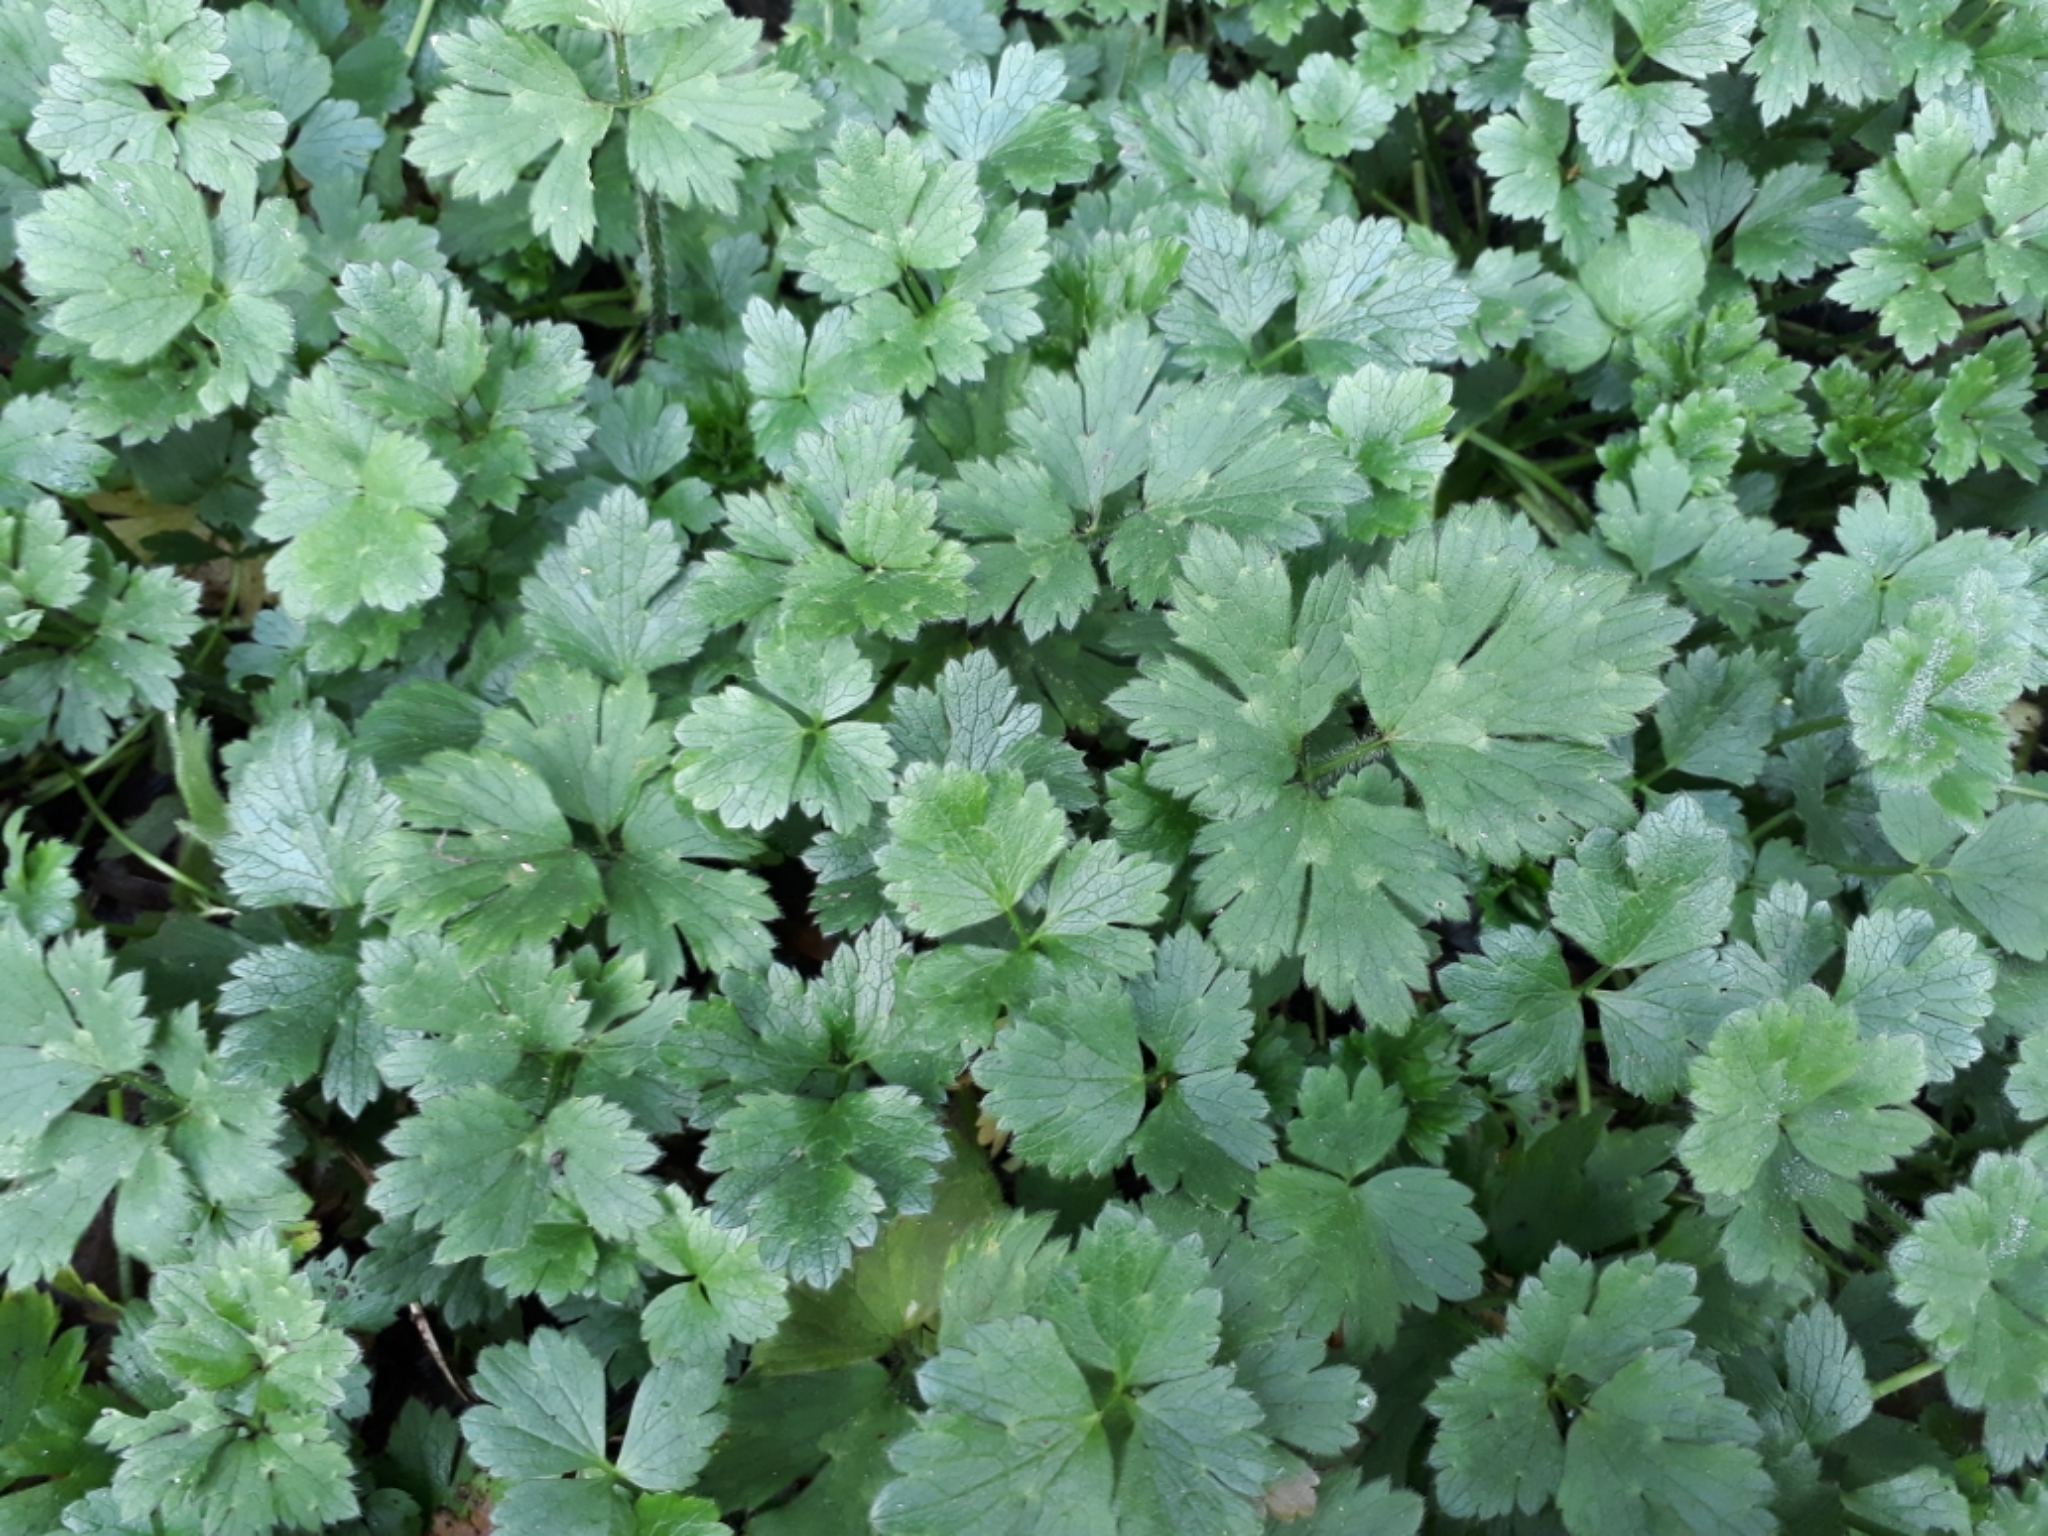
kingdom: Plantae
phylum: Tracheophyta
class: Magnoliopsida
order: Ranunculales
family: Ranunculaceae
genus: Ranunculus
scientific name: Ranunculus repens
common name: Creeping buttercup
